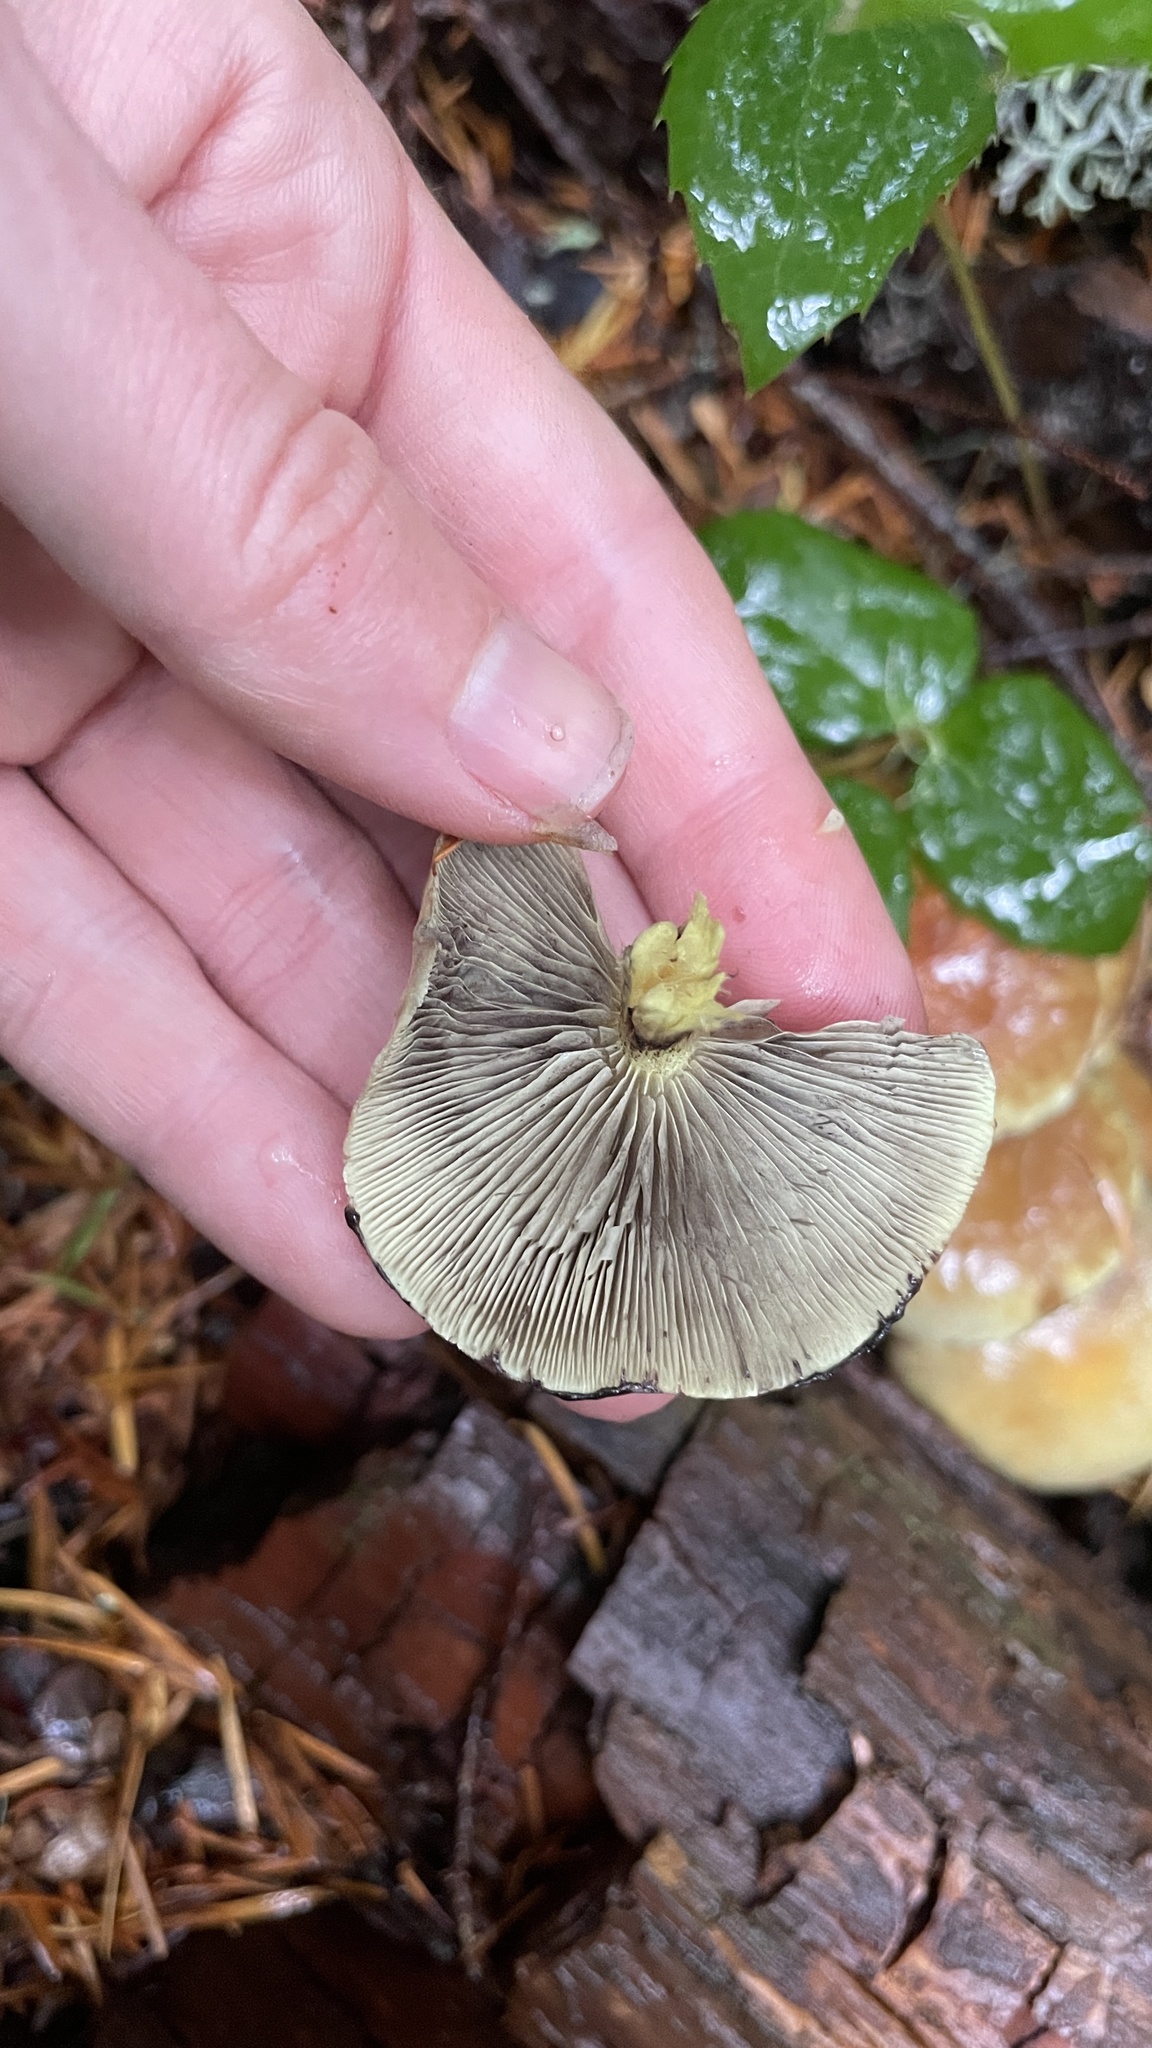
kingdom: Fungi
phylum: Basidiomycota
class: Agaricomycetes
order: Agaricales
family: Strophariaceae
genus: Hypholoma
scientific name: Hypholoma fasciculare
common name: Sulphur tuft
